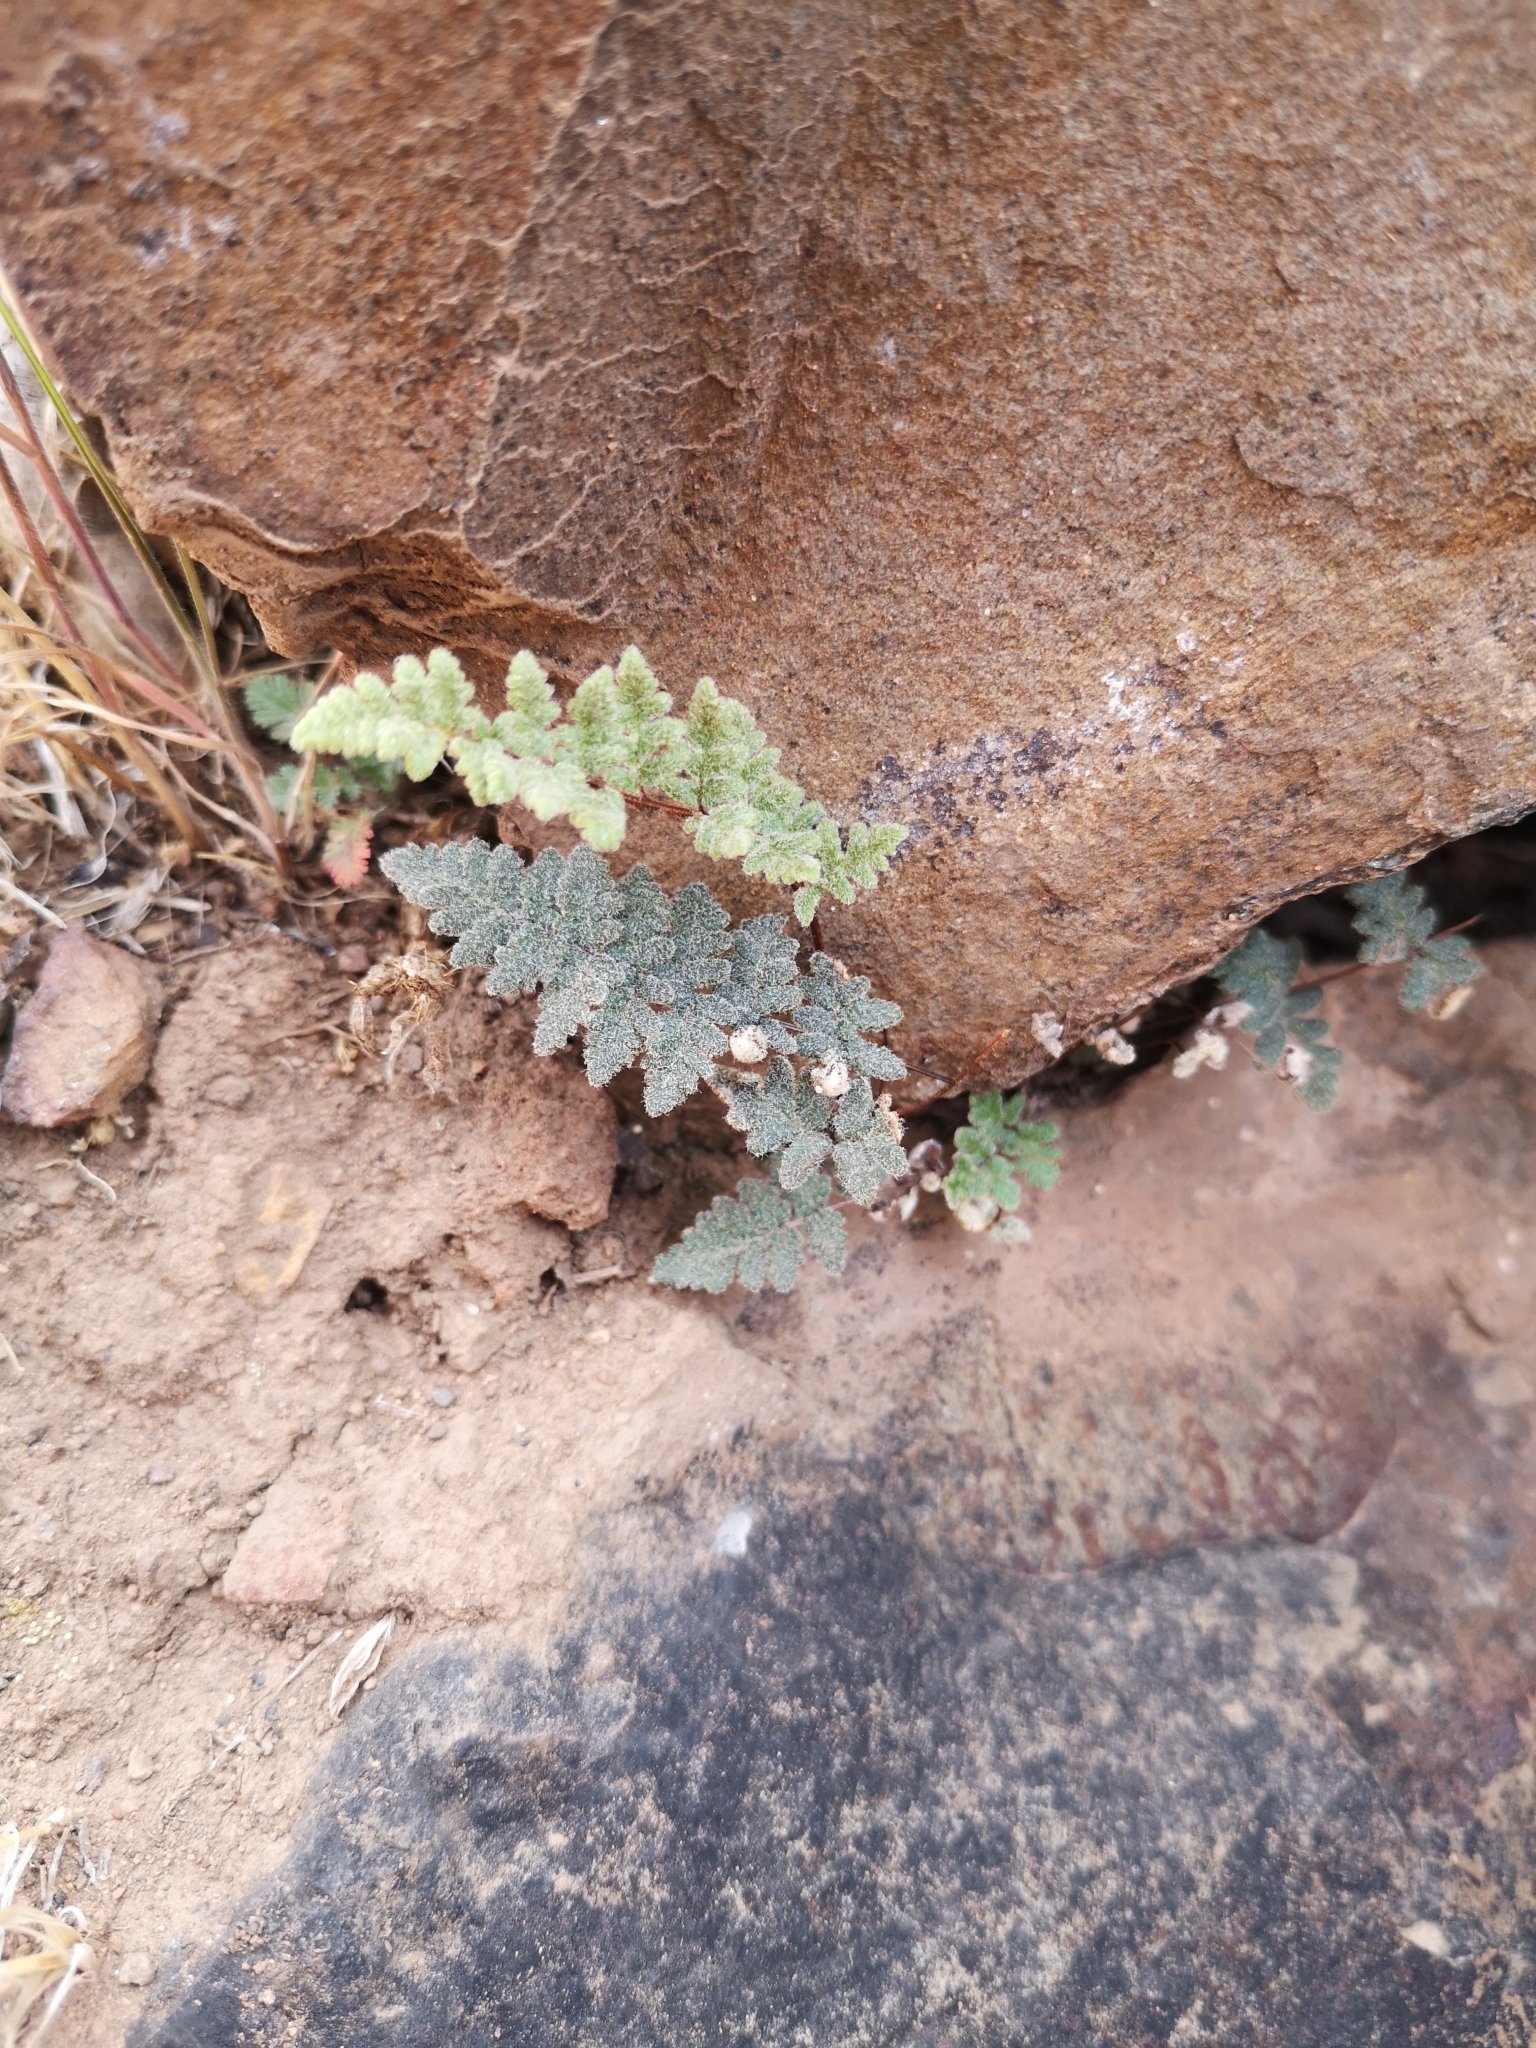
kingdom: Plantae
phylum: Tracheophyta
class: Polypodiopsida
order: Polypodiales
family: Pteridaceae
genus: Cheilanthes
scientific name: Cheilanthes hypoleuca
